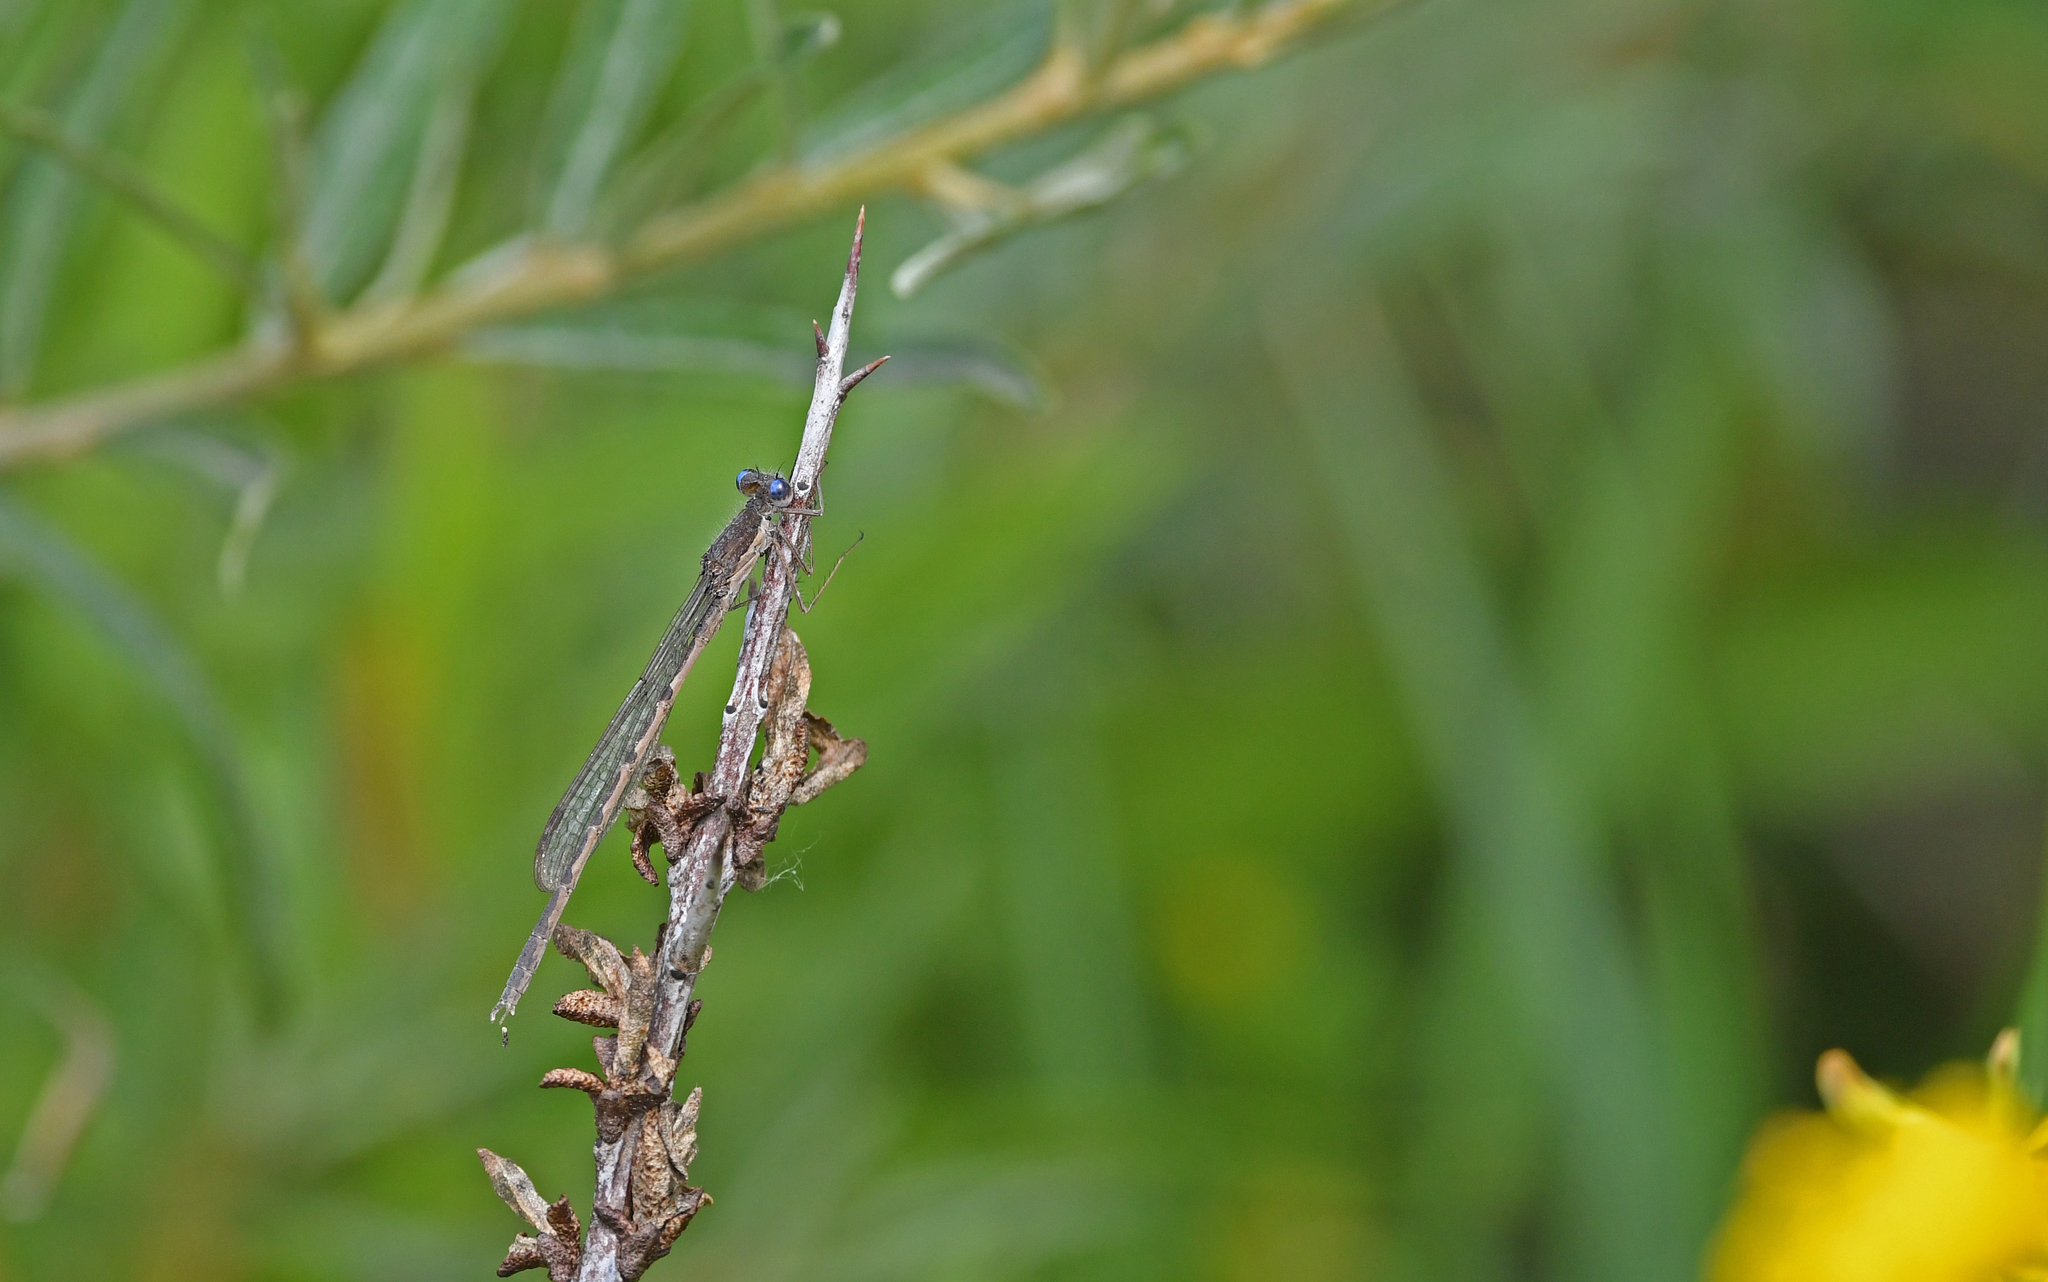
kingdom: Animalia
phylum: Arthropoda
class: Insecta
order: Odonata
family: Lestidae
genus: Sympecma
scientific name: Sympecma fusca
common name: Common winter damsel
